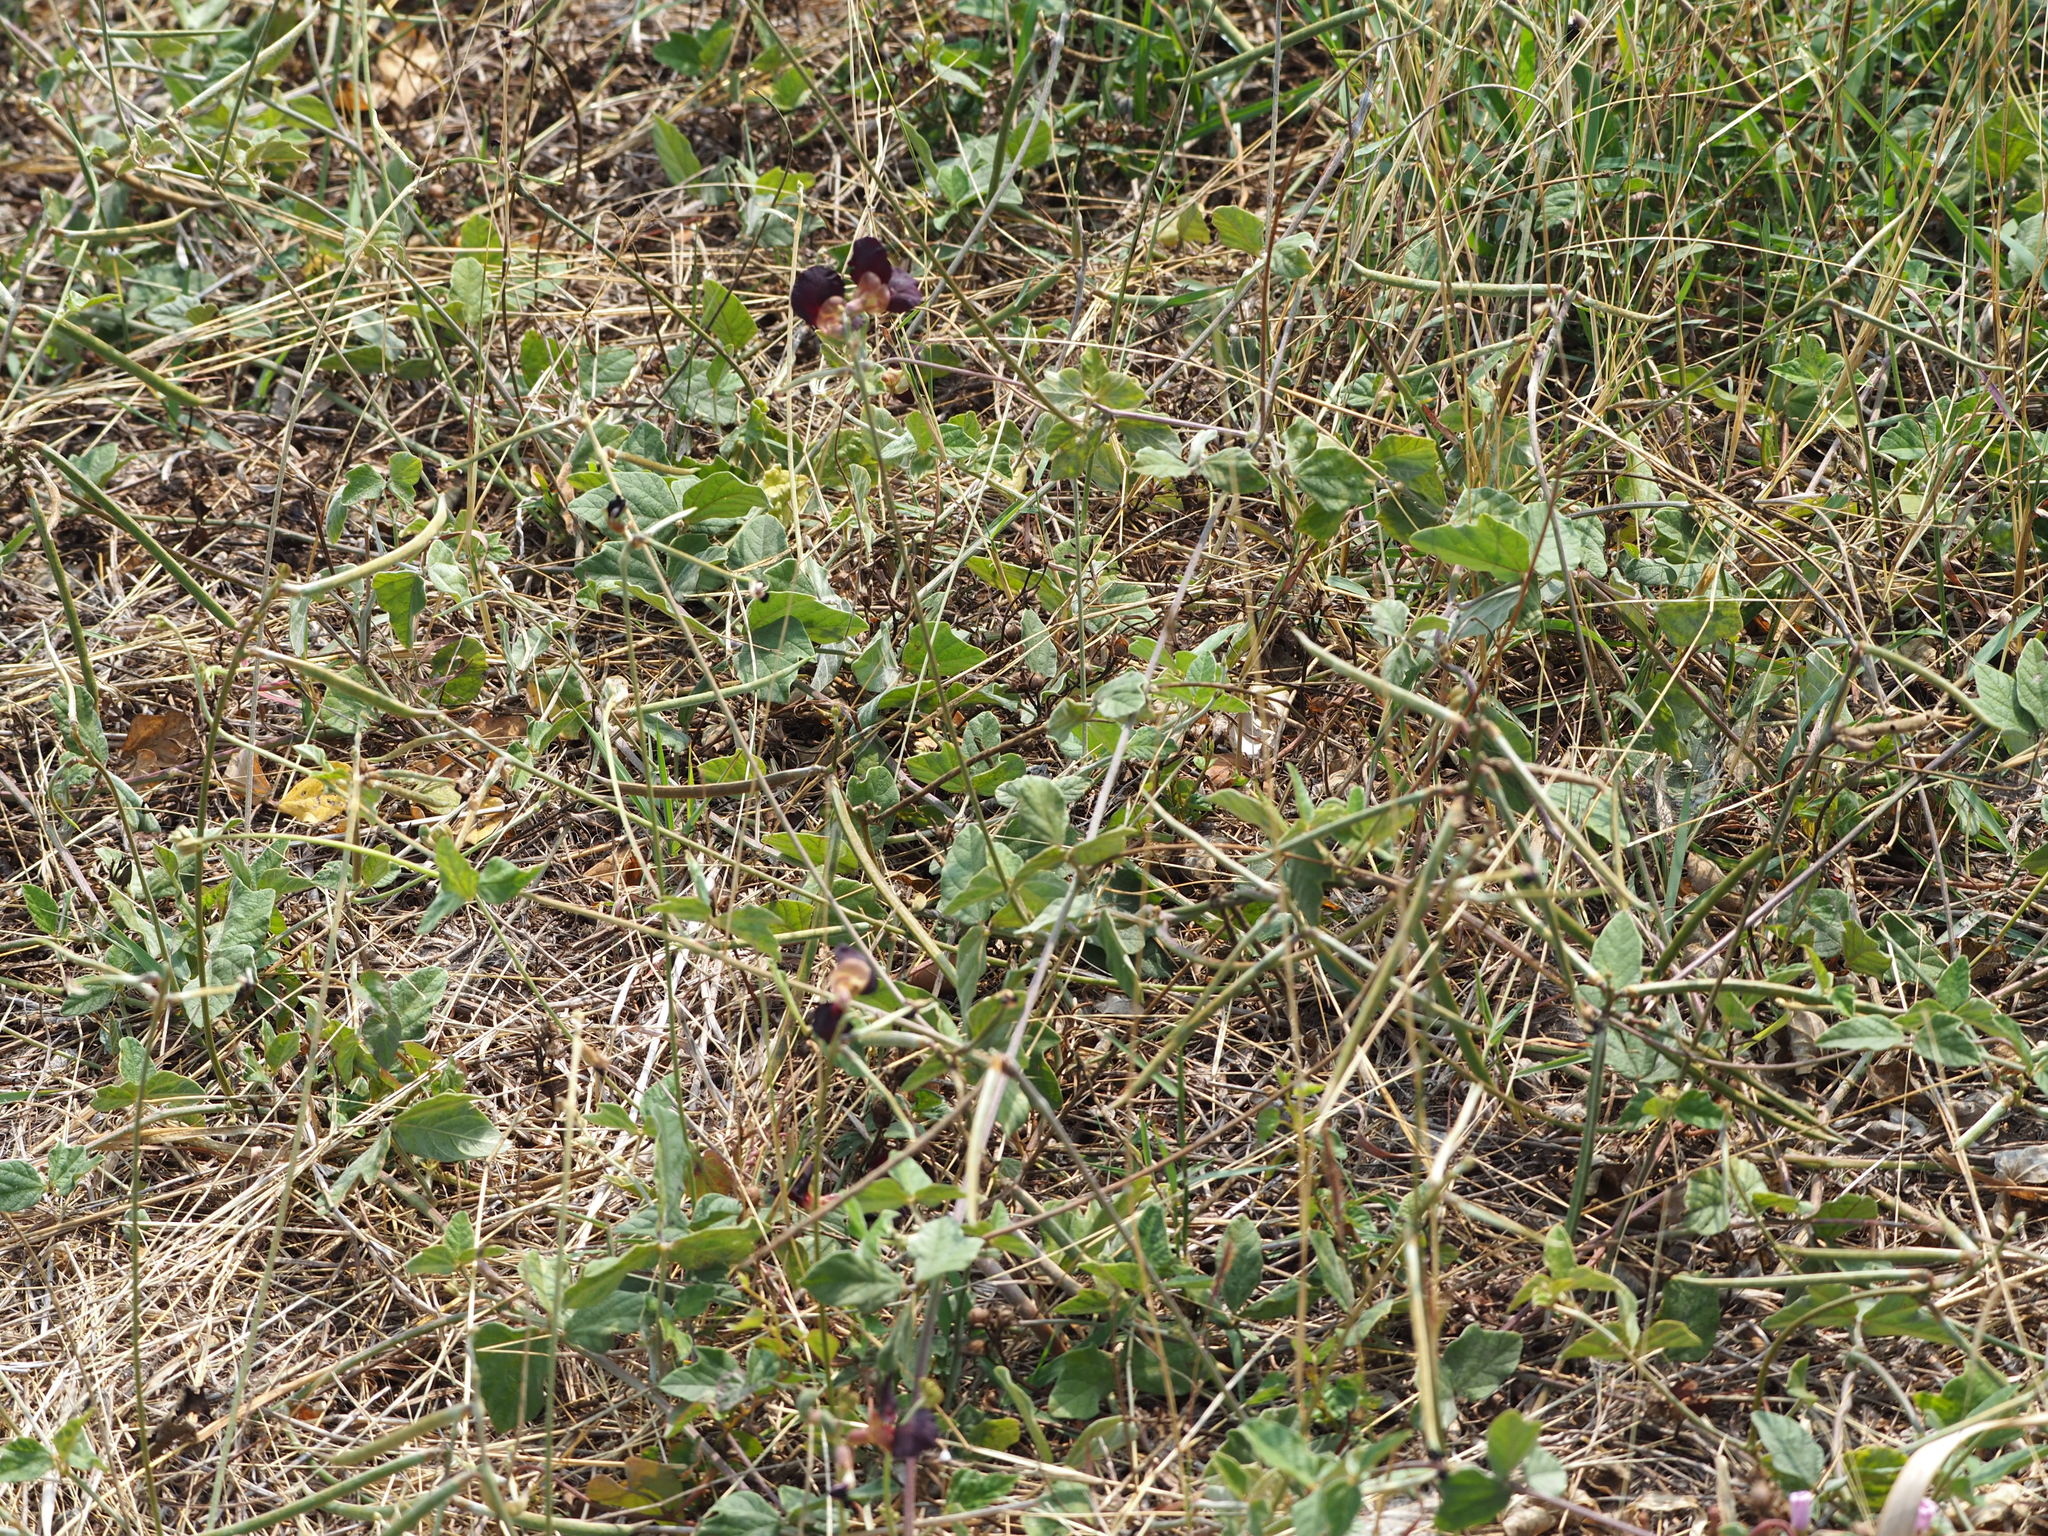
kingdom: Plantae
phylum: Tracheophyta
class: Magnoliopsida
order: Fabales
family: Fabaceae
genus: Macroptilium
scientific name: Macroptilium atropurpureum
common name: Purple bushbean
